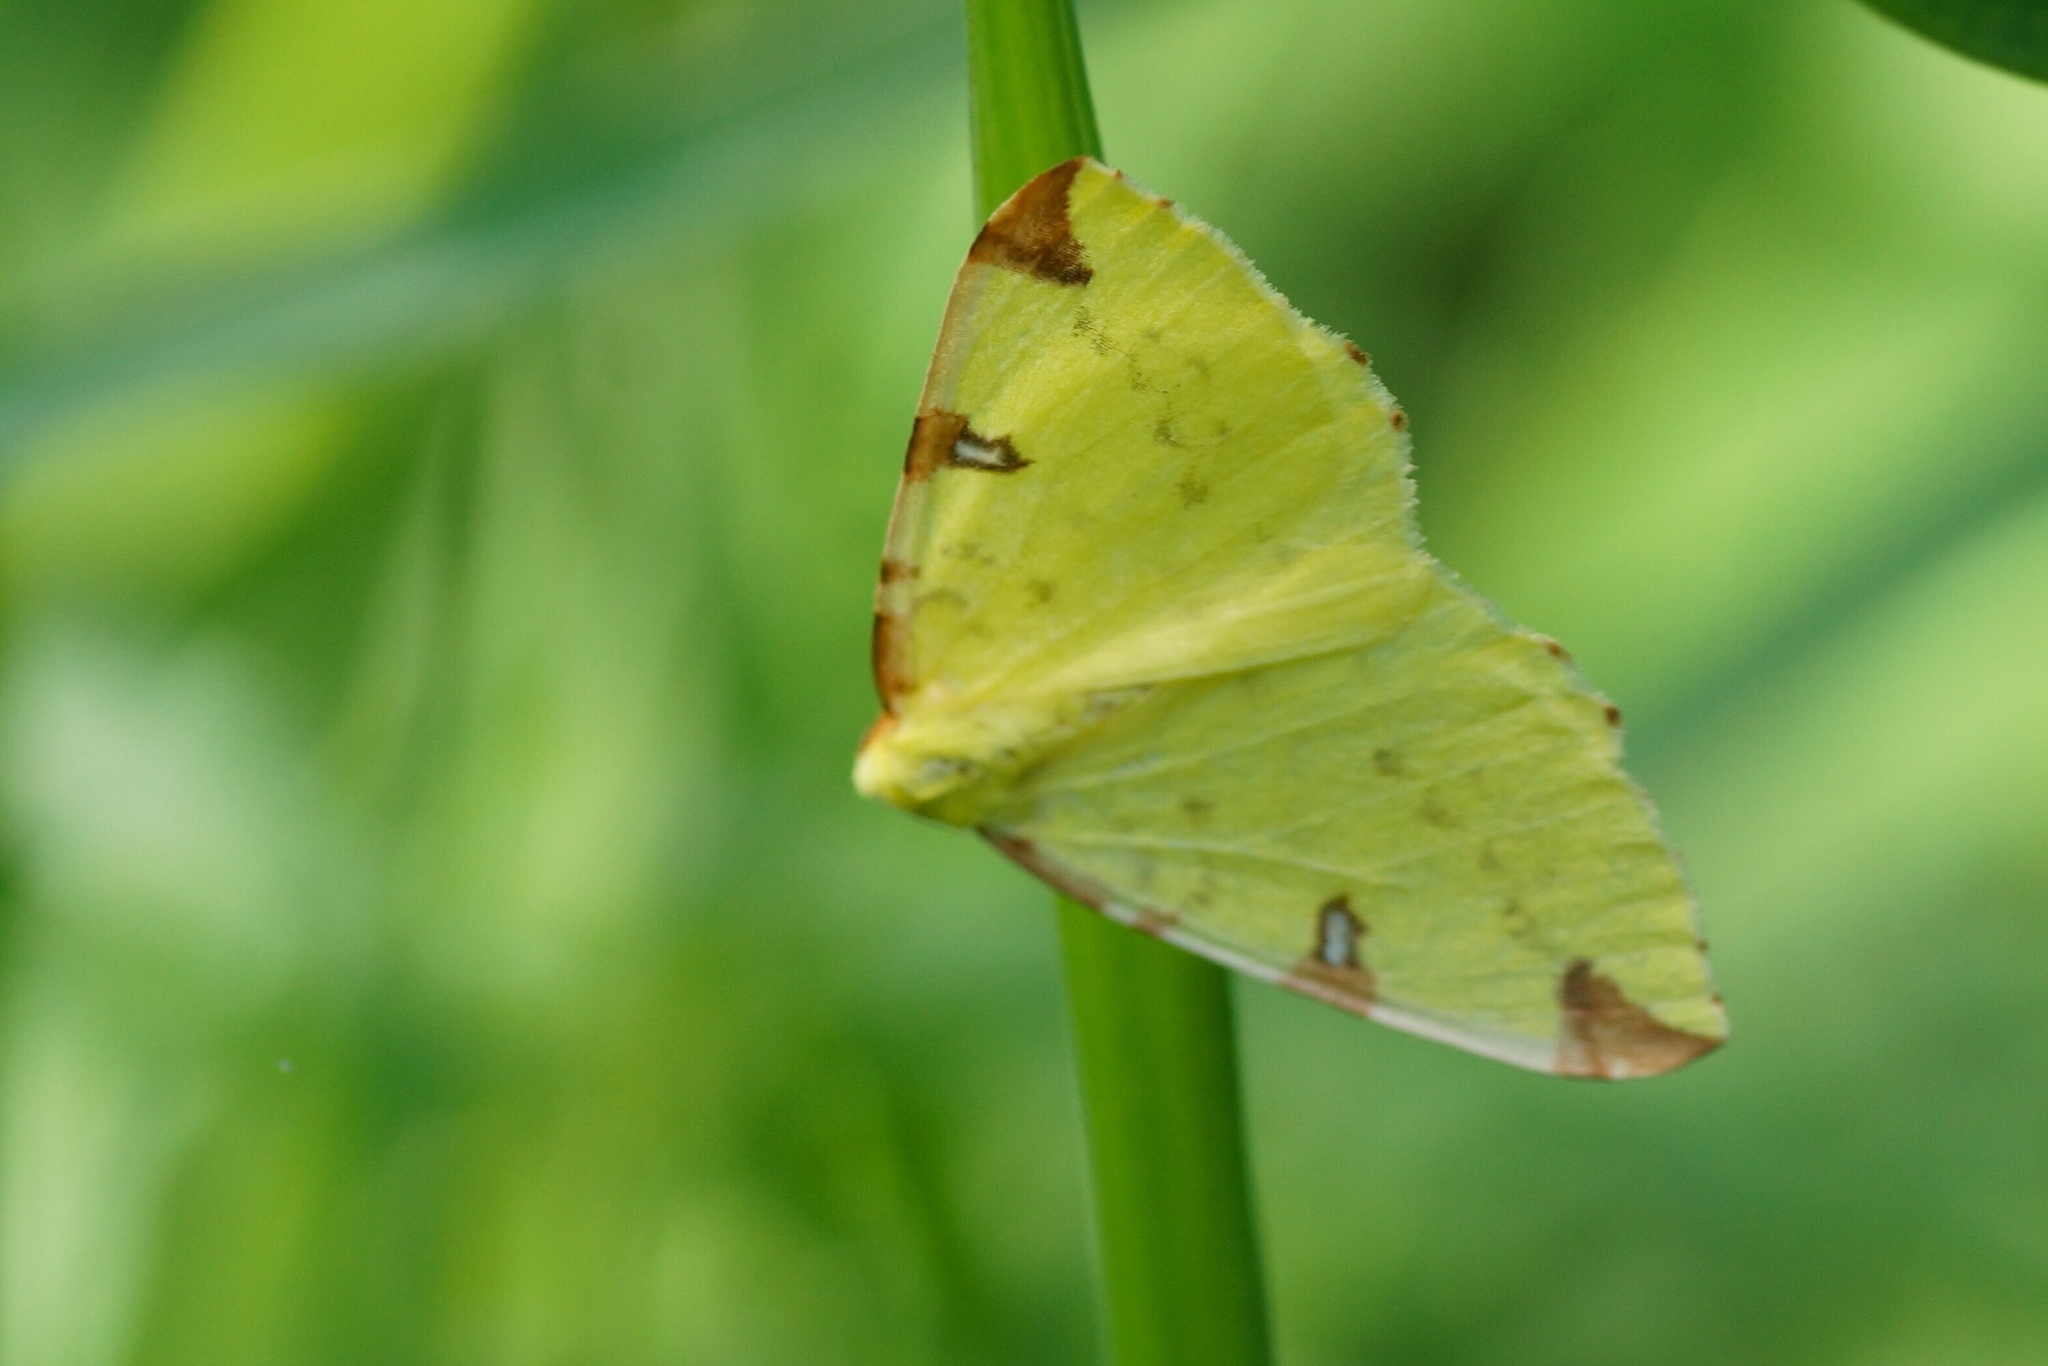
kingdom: Animalia
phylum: Arthropoda
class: Insecta
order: Lepidoptera
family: Geometridae
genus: Opisthograptis
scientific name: Opisthograptis luteolata
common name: Brimstone moth
